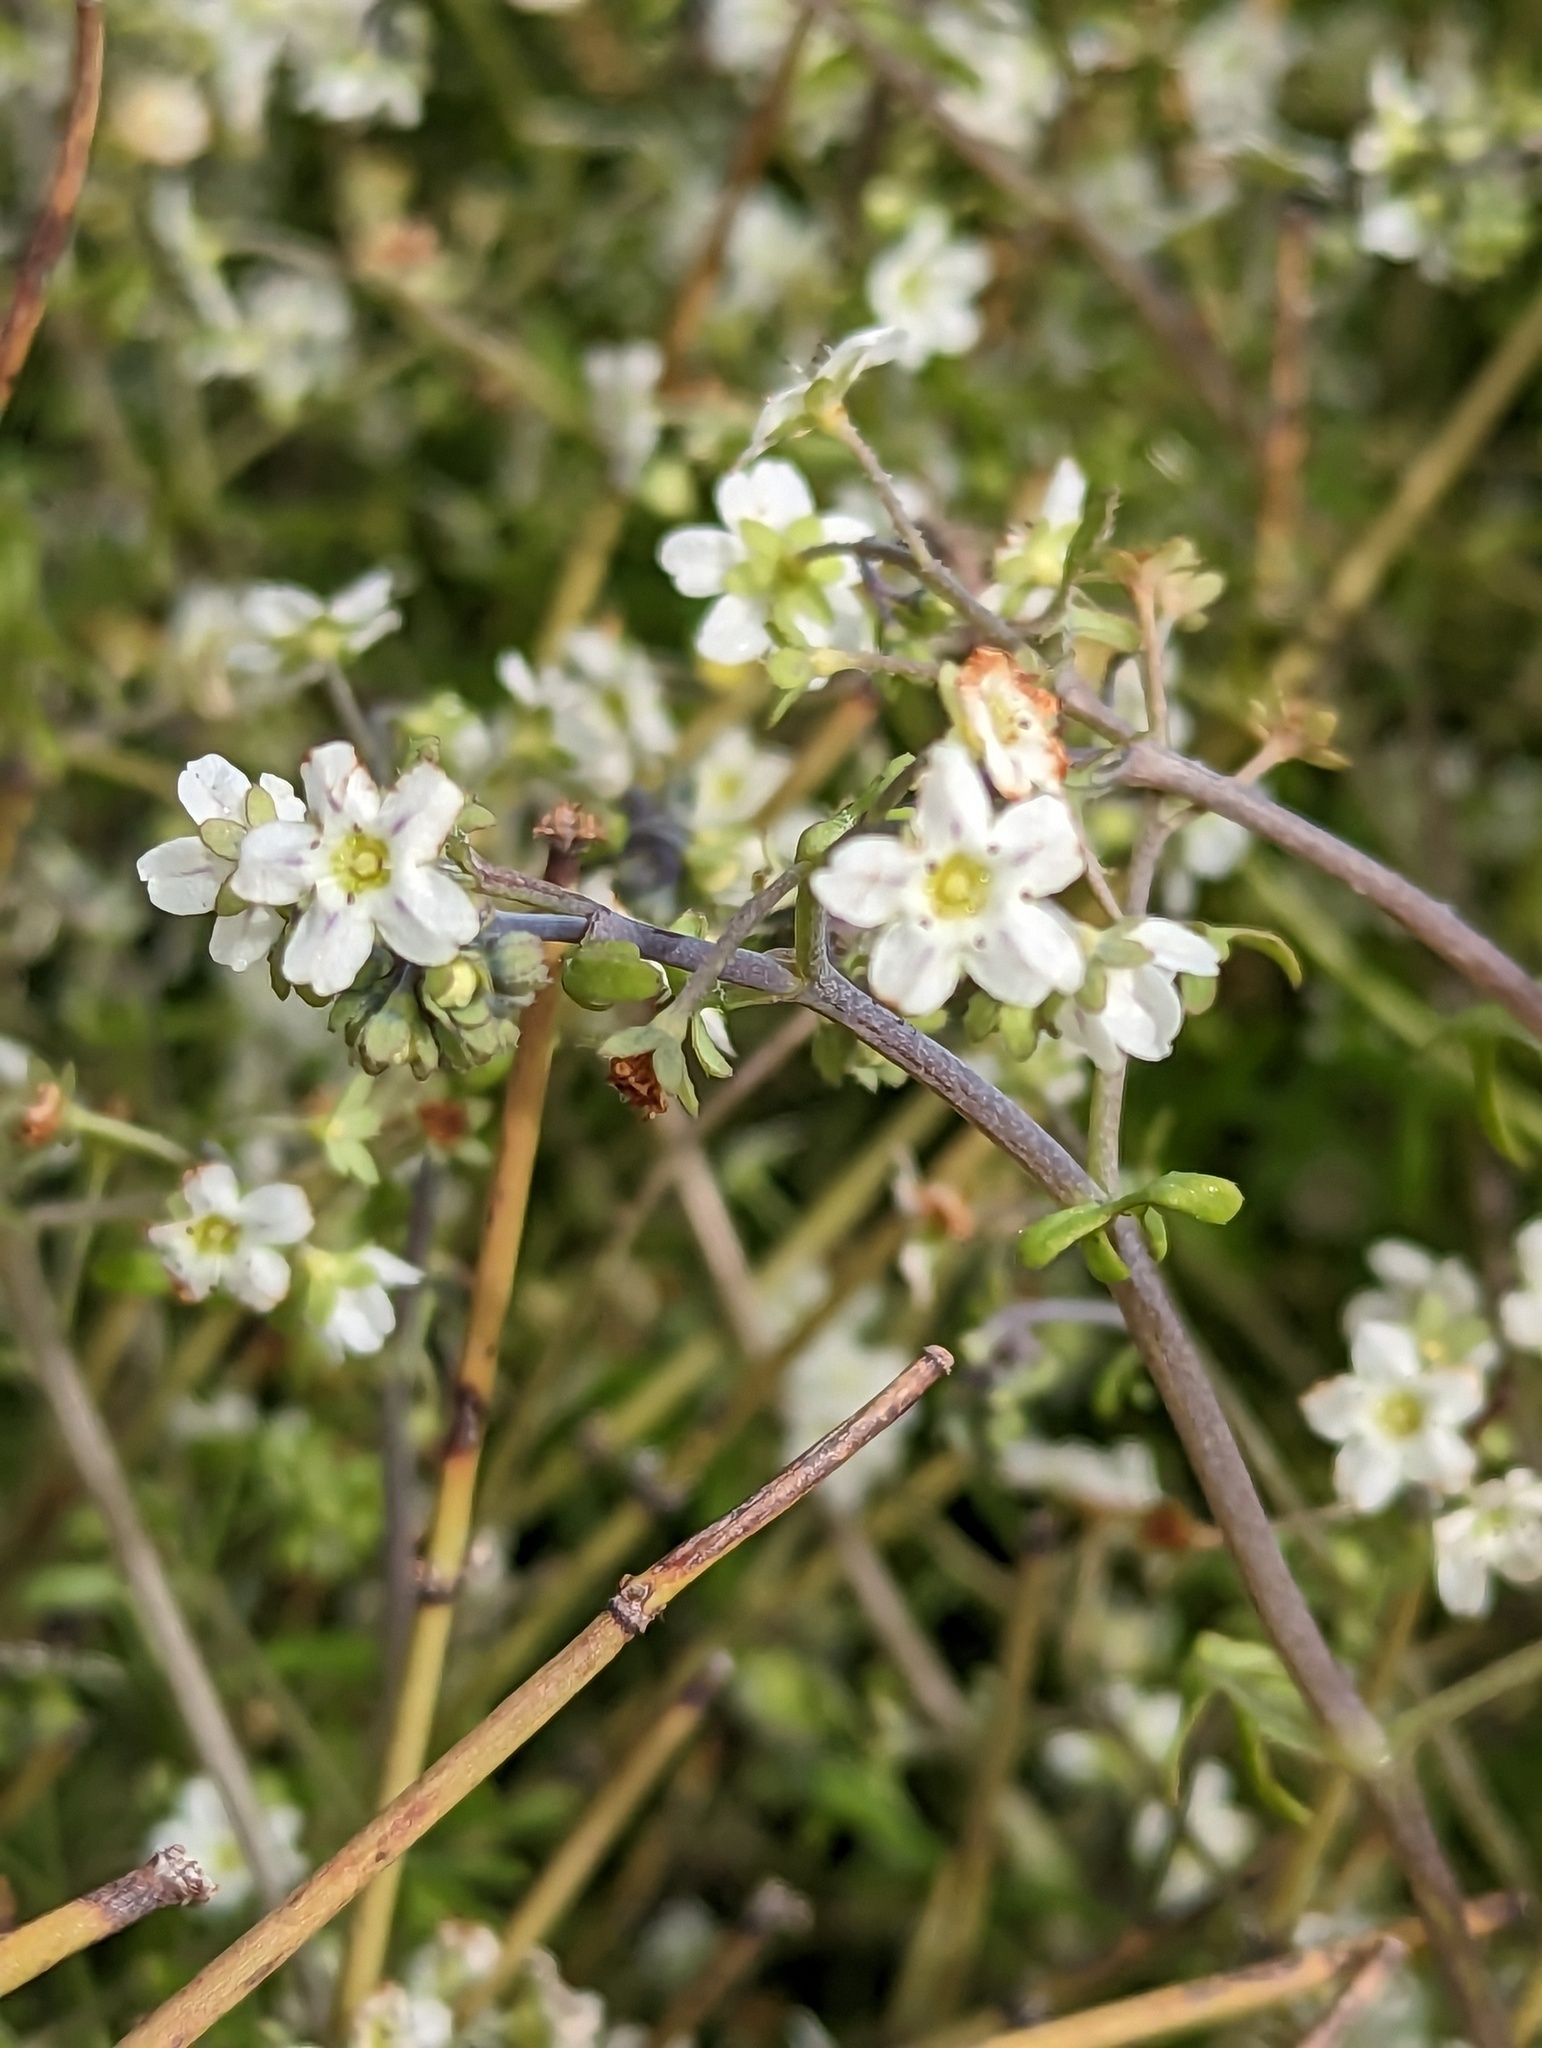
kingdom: Plantae
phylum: Tracheophyta
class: Magnoliopsida
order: Boraginales
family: Hydrophyllaceae
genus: Pholistoma
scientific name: Pholistoma membranaceum
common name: White fiesta-flower
